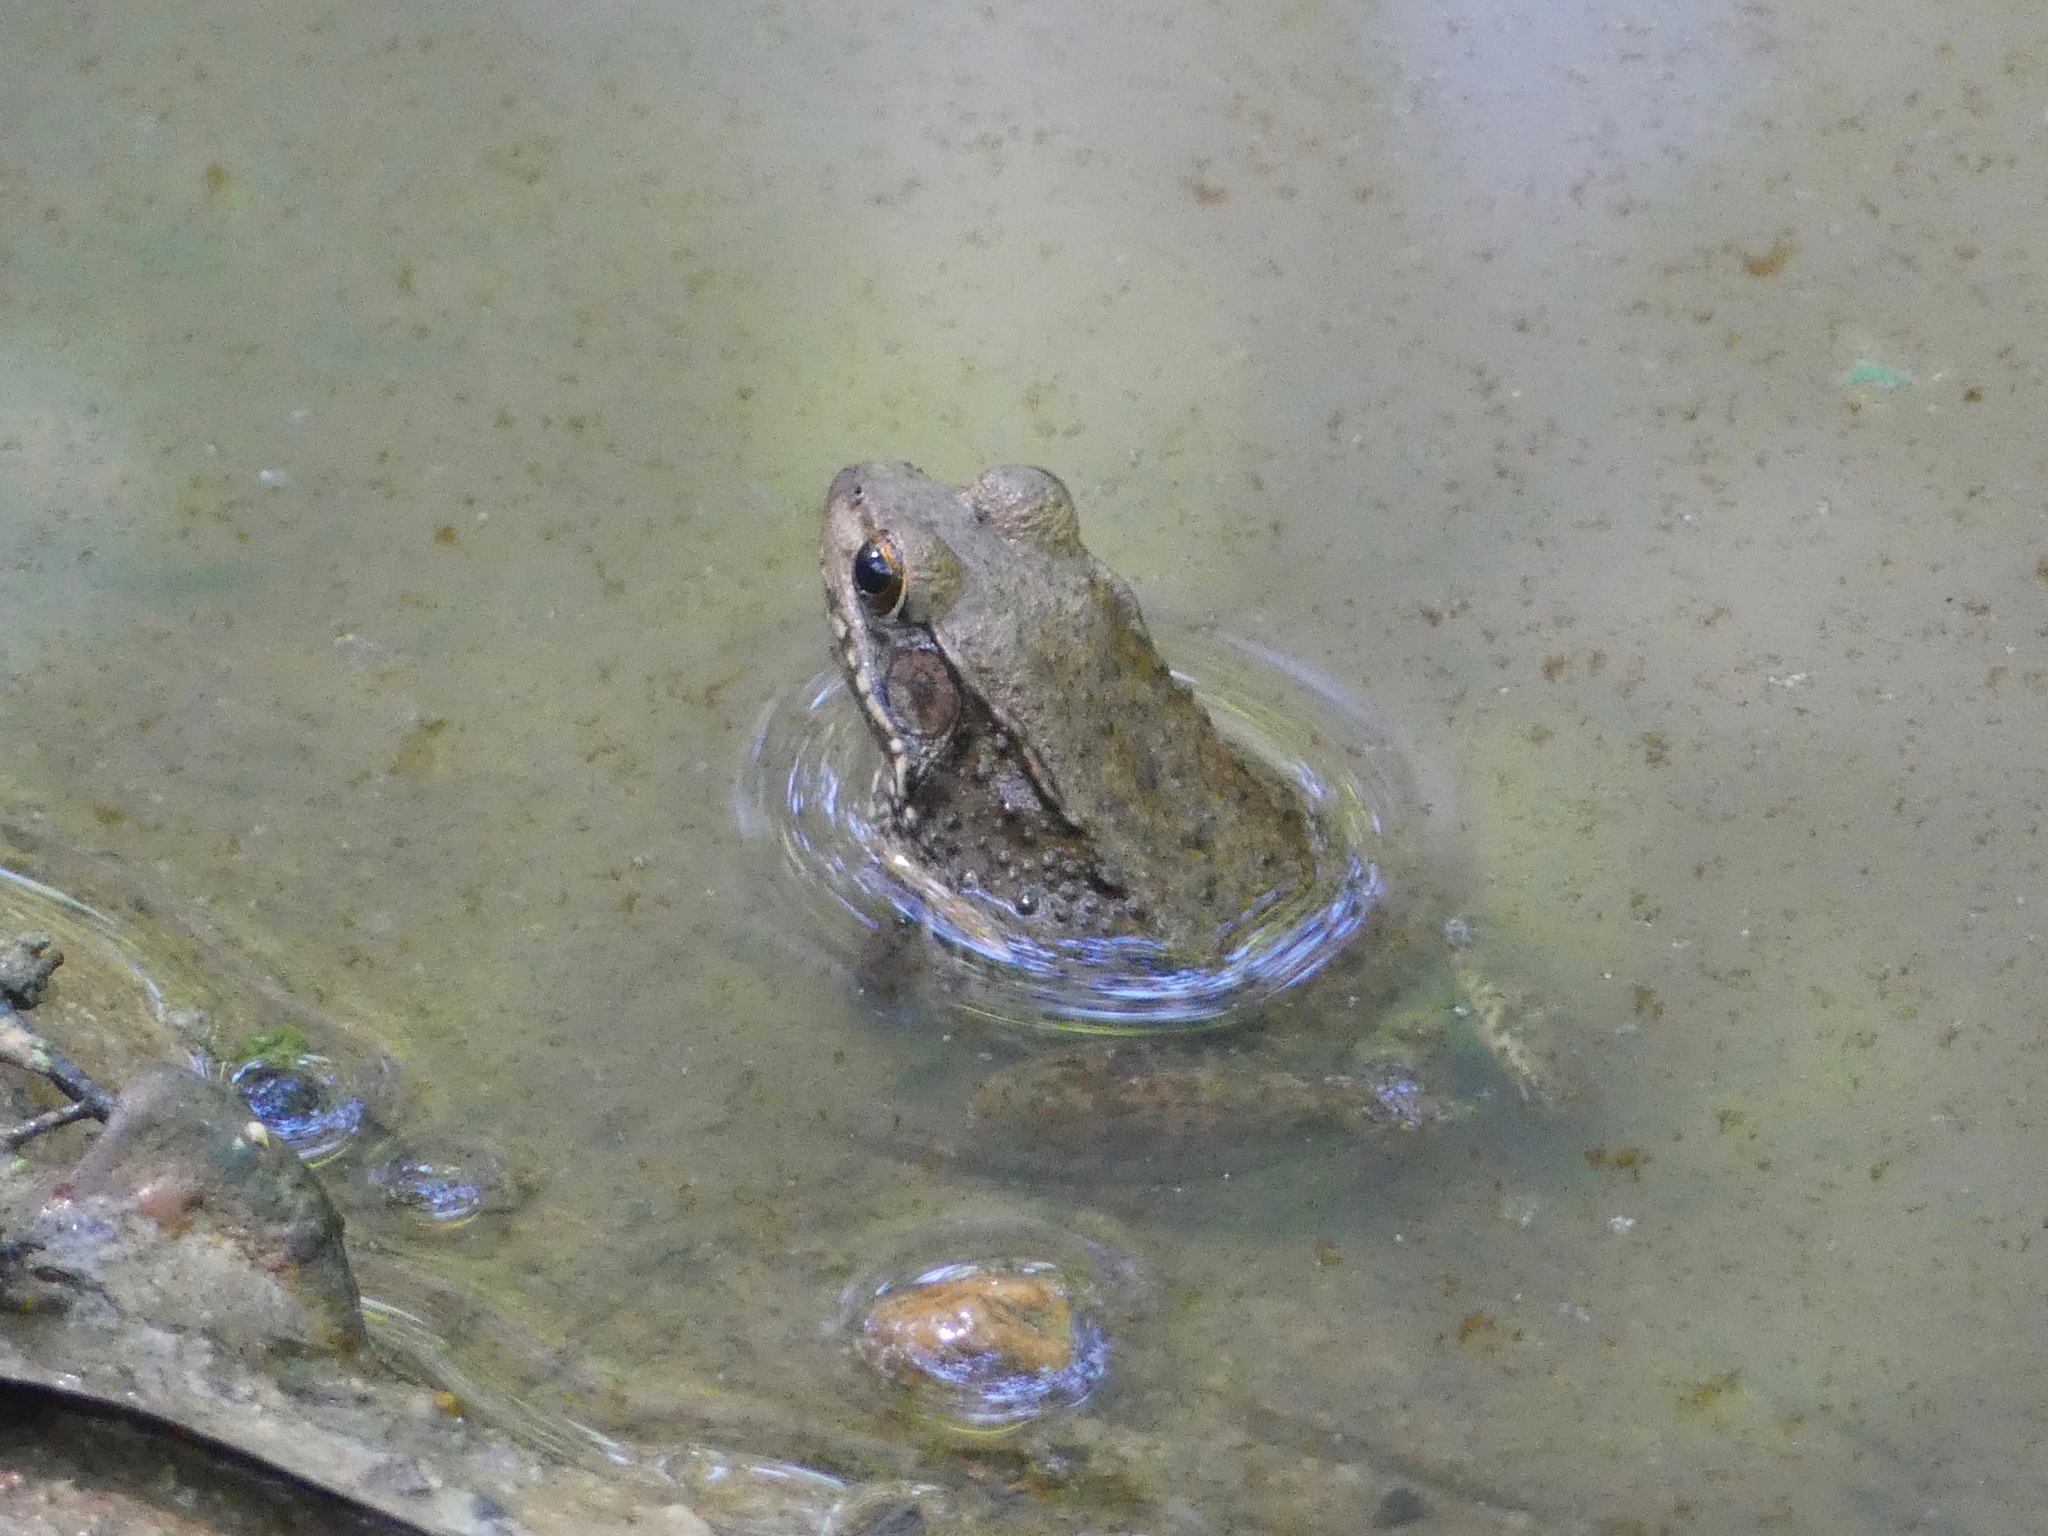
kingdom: Animalia
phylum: Chordata
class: Amphibia
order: Anura
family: Ranidae
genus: Lithobates
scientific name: Lithobates clamitans
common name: Green frog
